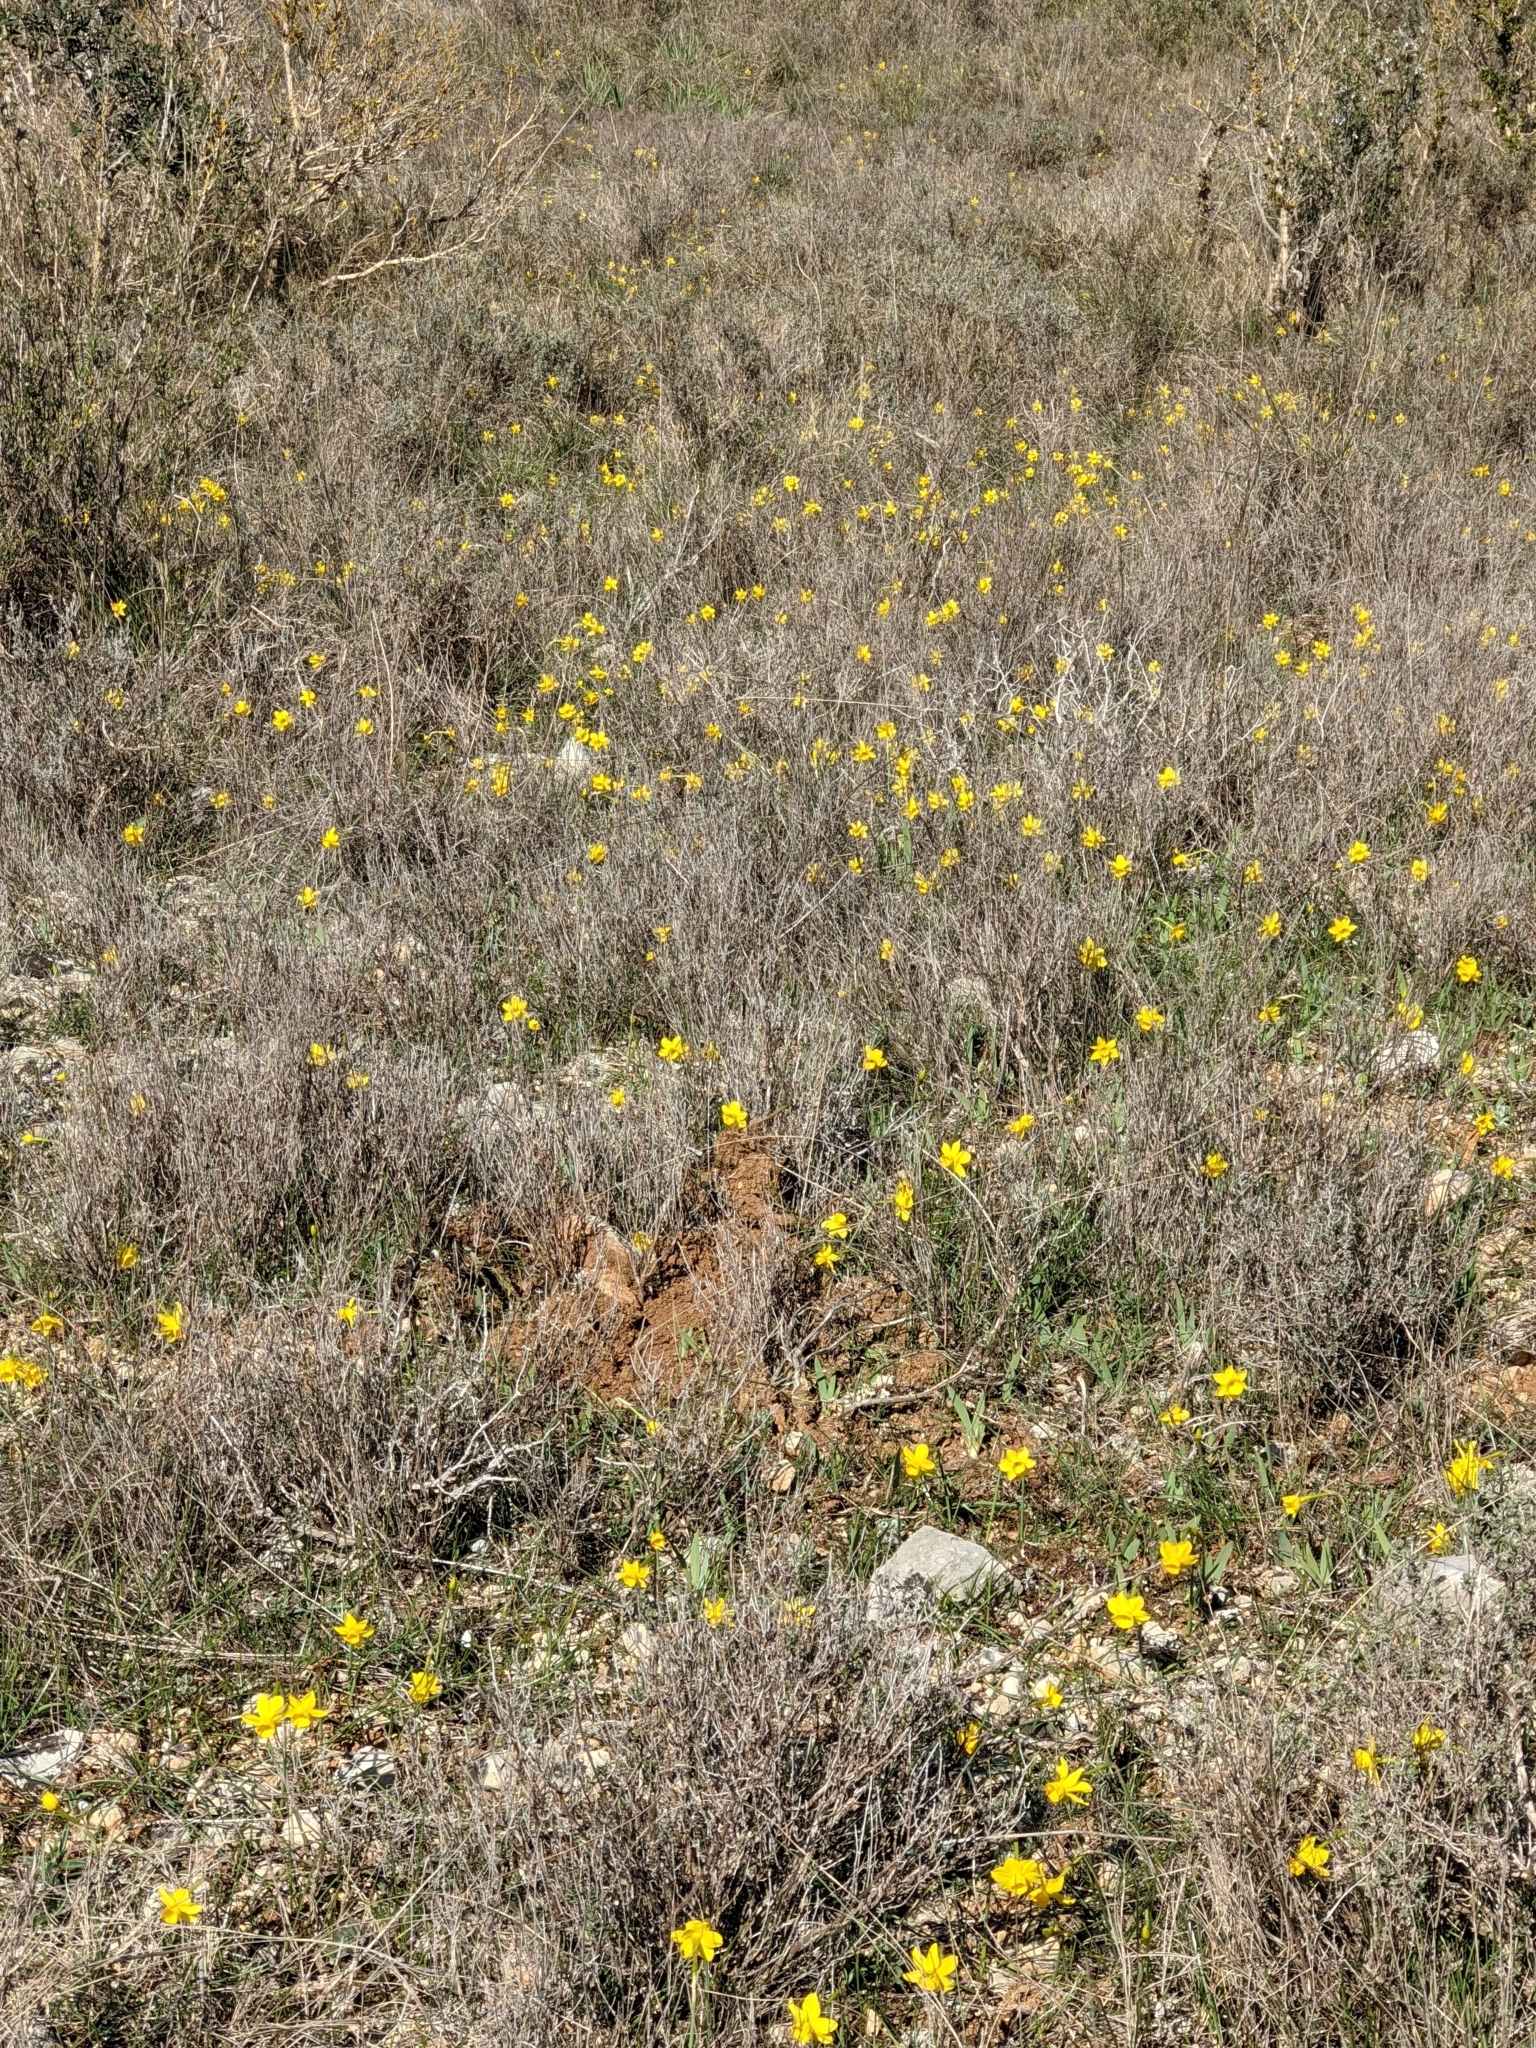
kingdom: Plantae
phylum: Tracheophyta
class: Liliopsida
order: Asparagales
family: Amaryllidaceae
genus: Narcissus
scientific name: Narcissus assoanus
